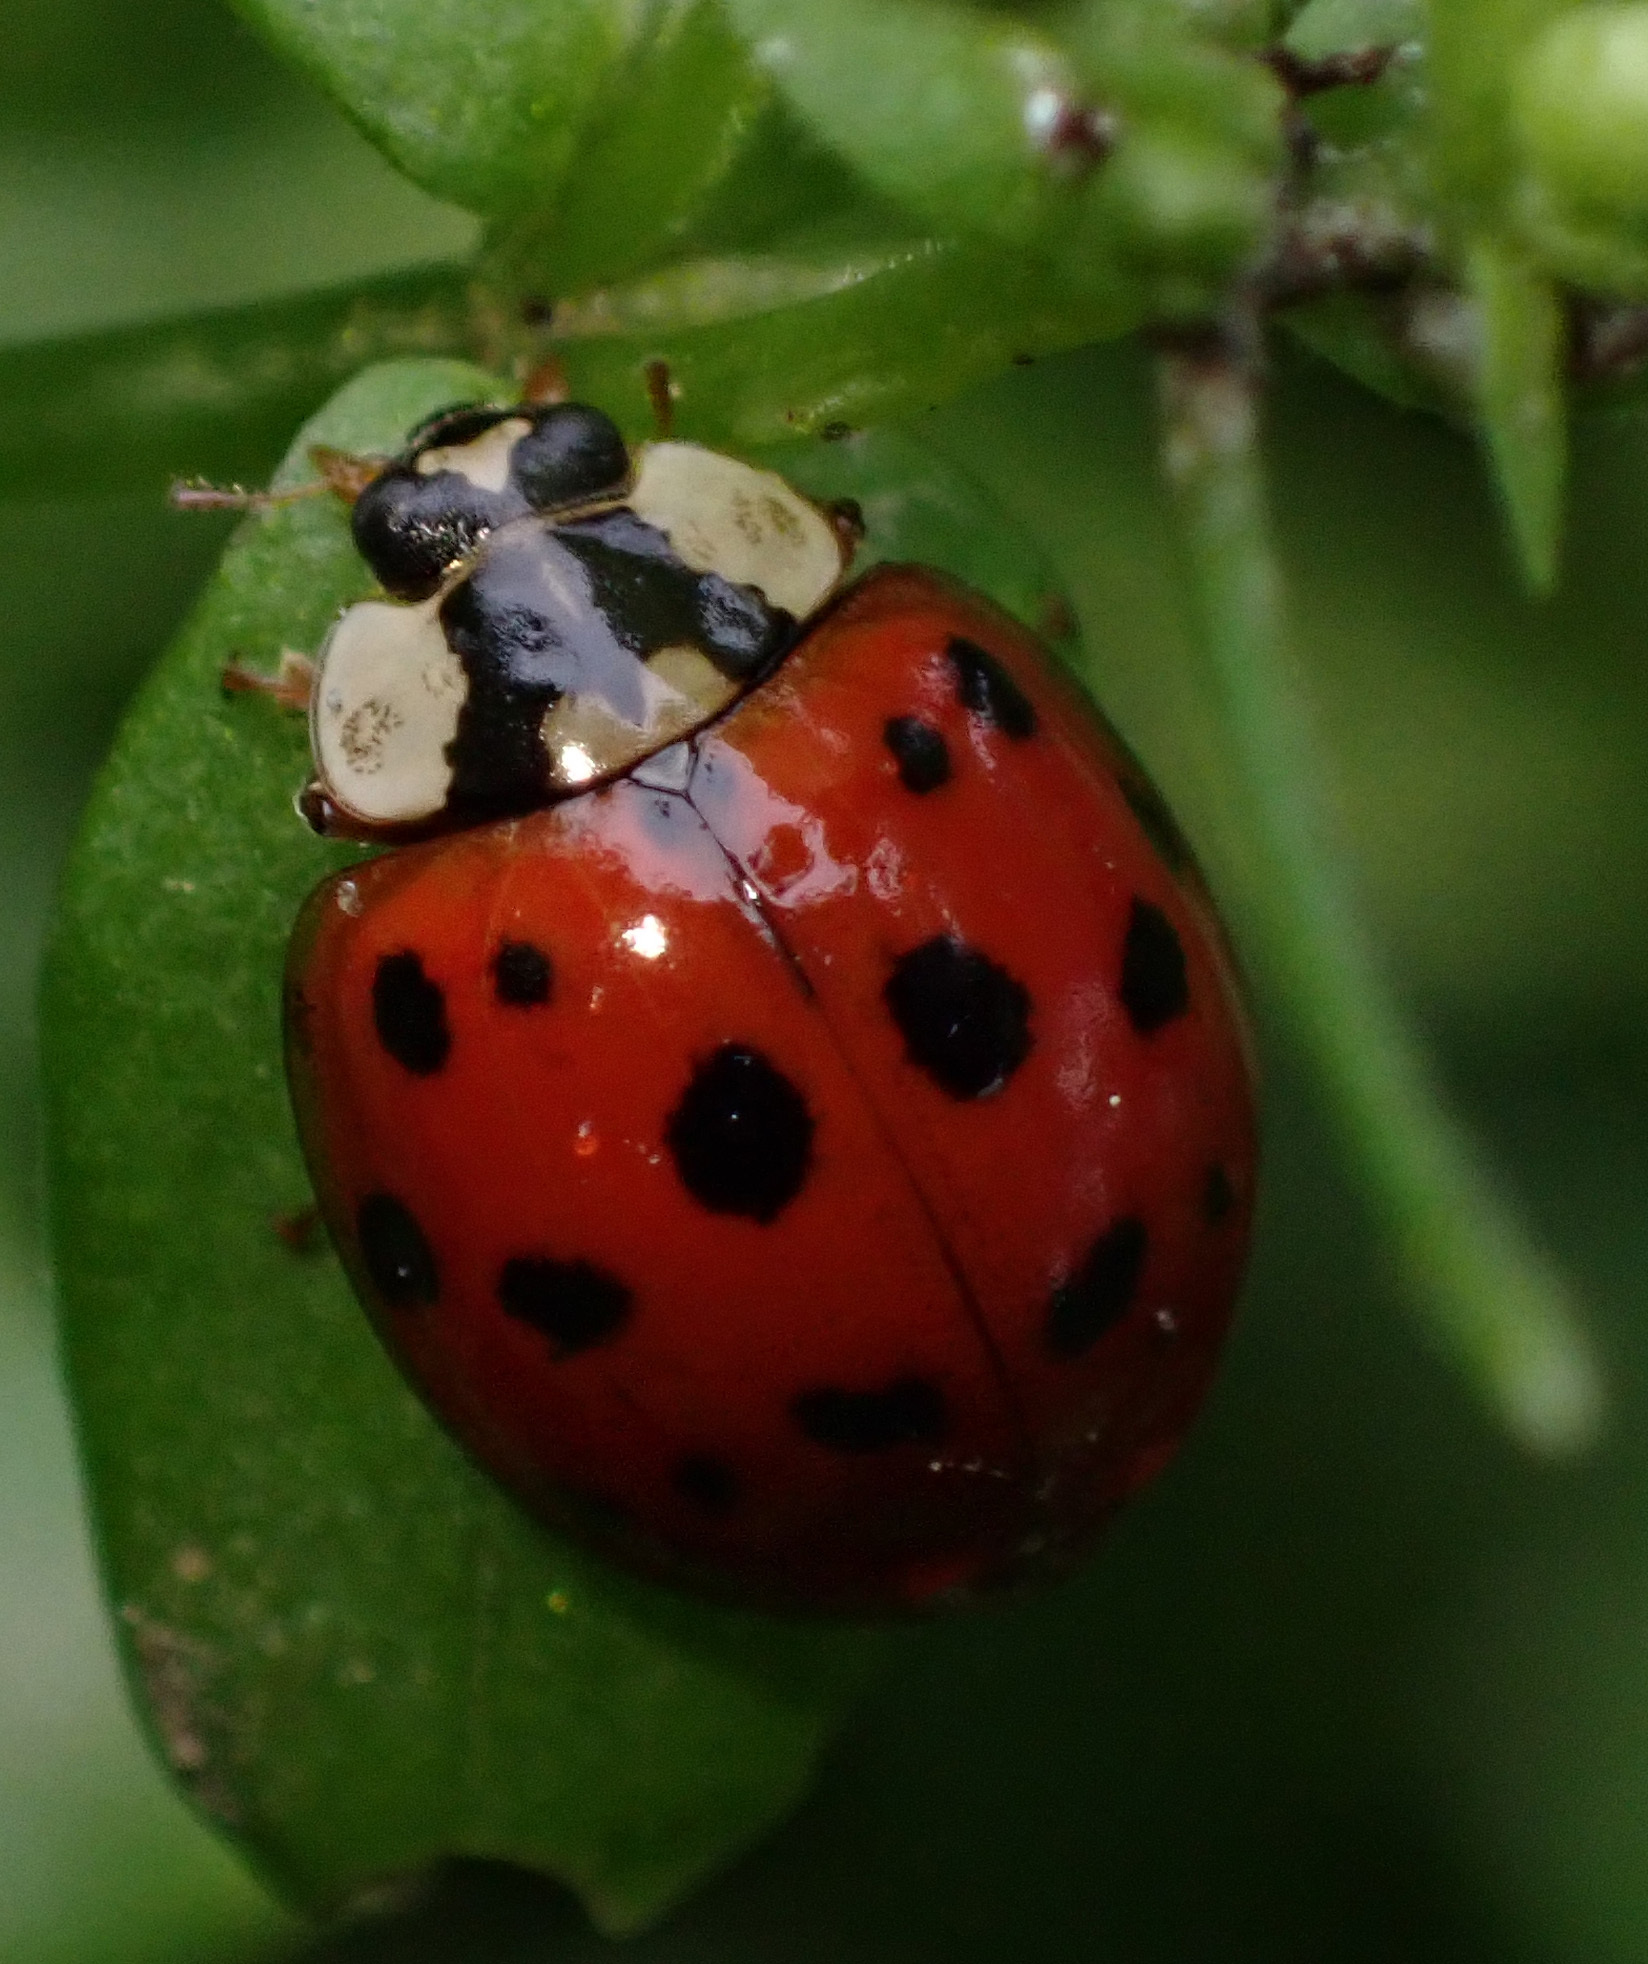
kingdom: Animalia
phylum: Arthropoda
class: Insecta
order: Coleoptera
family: Coccinellidae
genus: Harmonia
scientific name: Harmonia axyridis
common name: Harlequin ladybird
